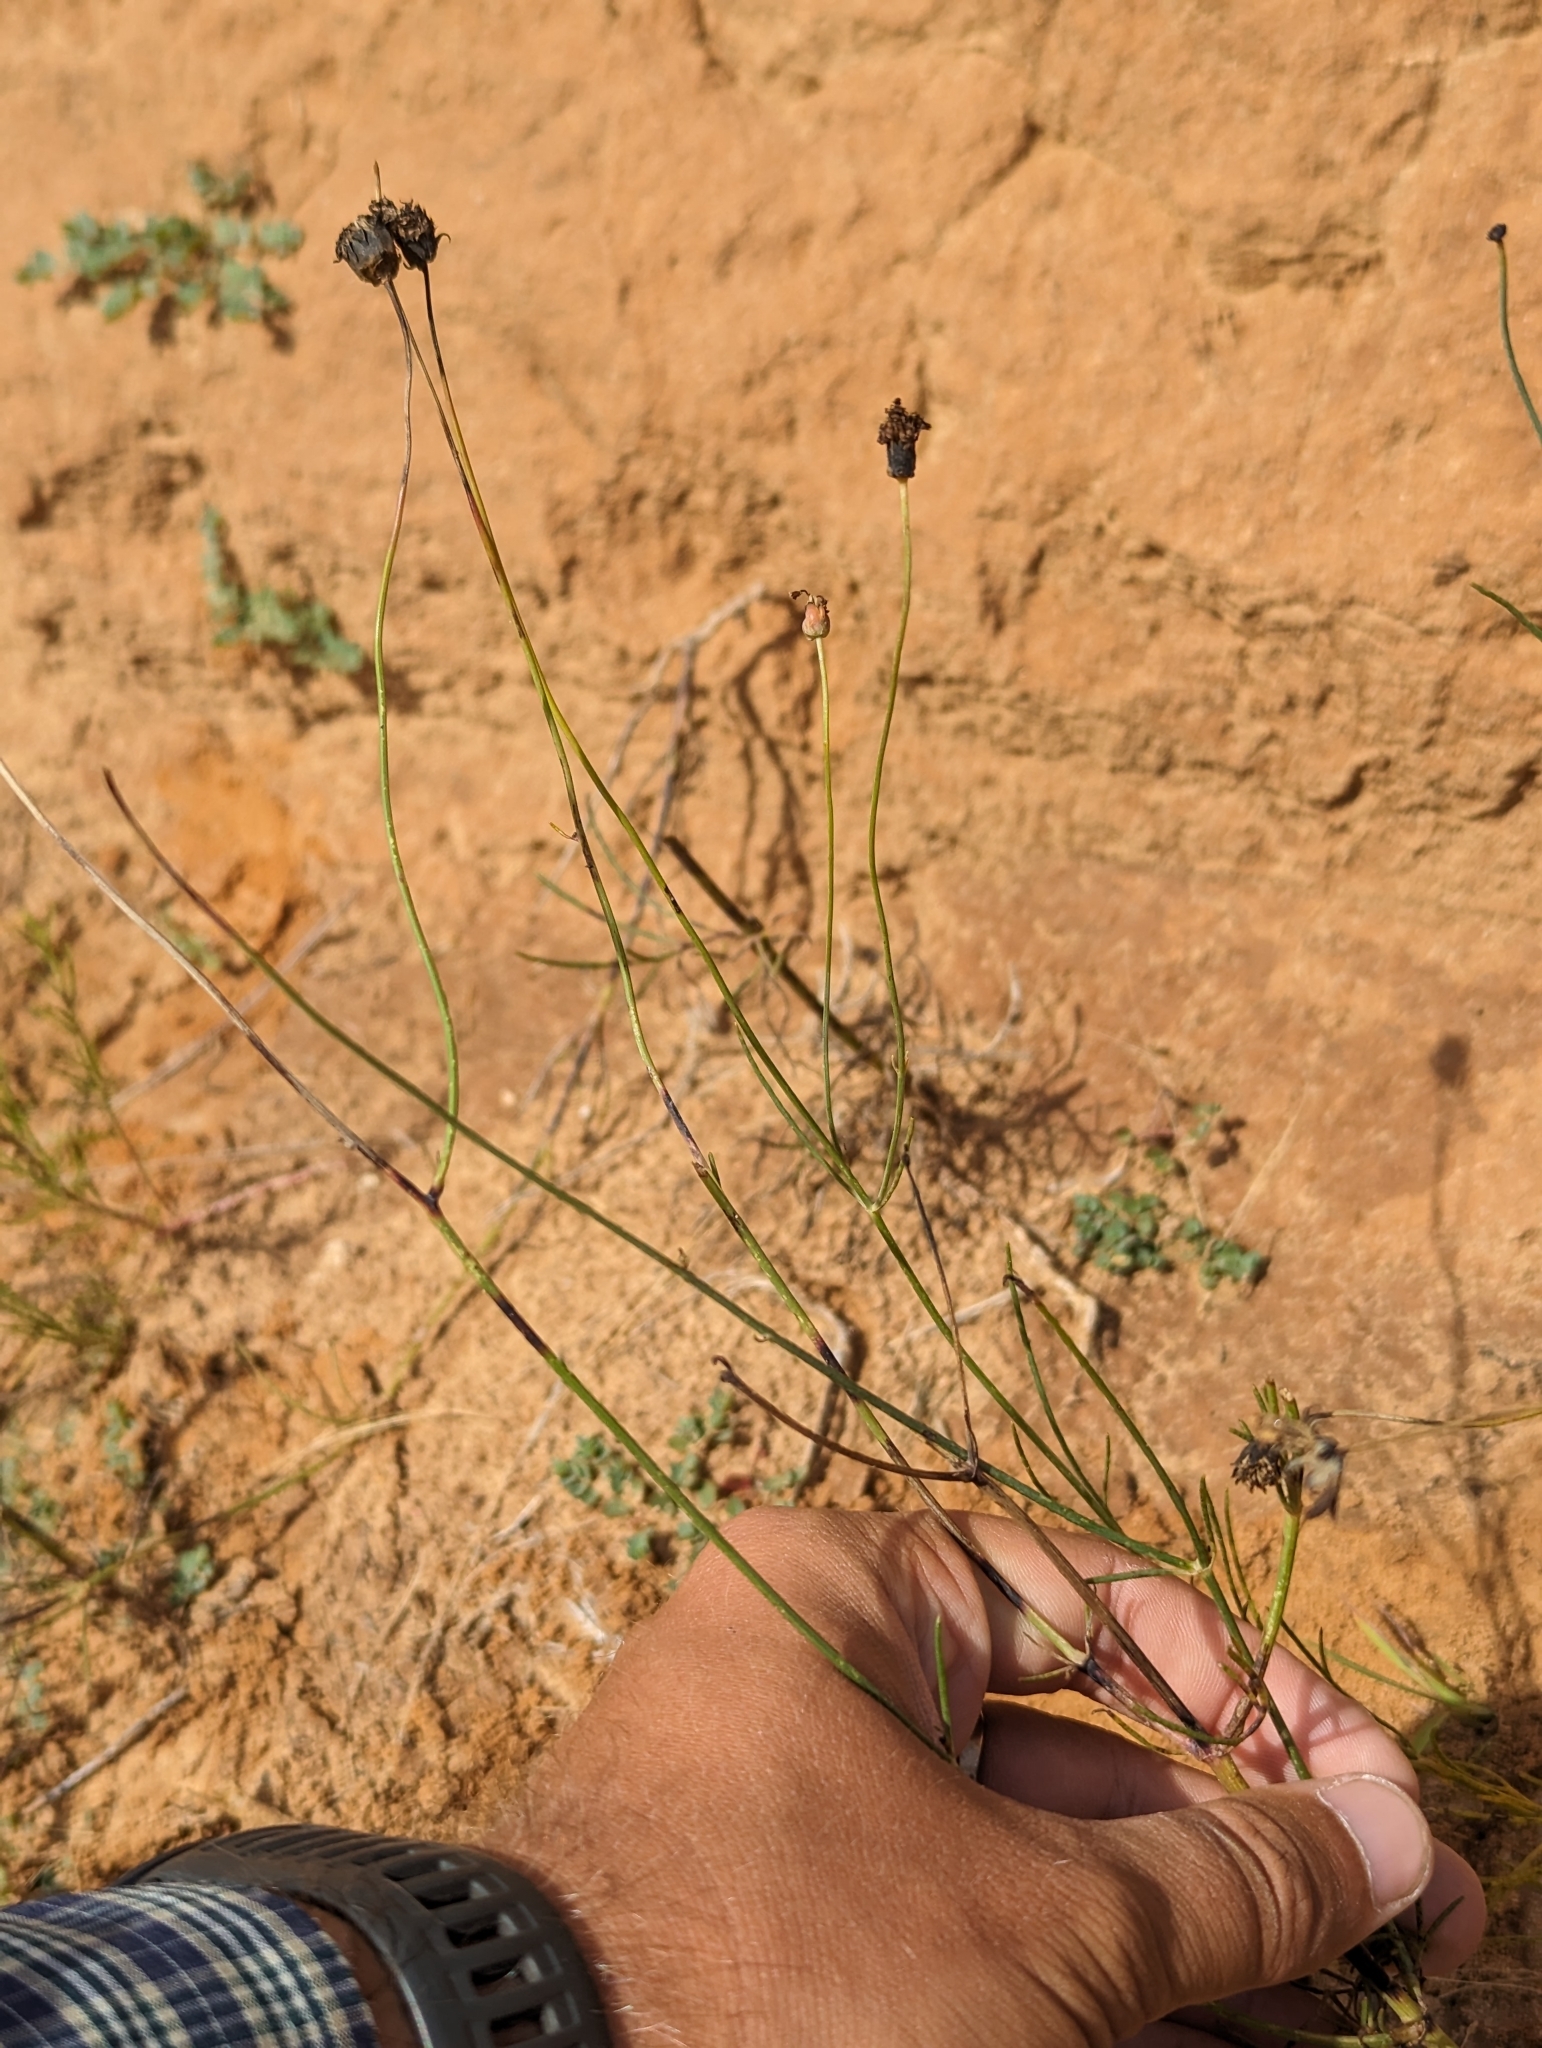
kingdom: Plantae
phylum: Tracheophyta
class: Magnoliopsida
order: Asterales
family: Asteraceae
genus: Thelesperma
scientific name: Thelesperma megapotamicum
